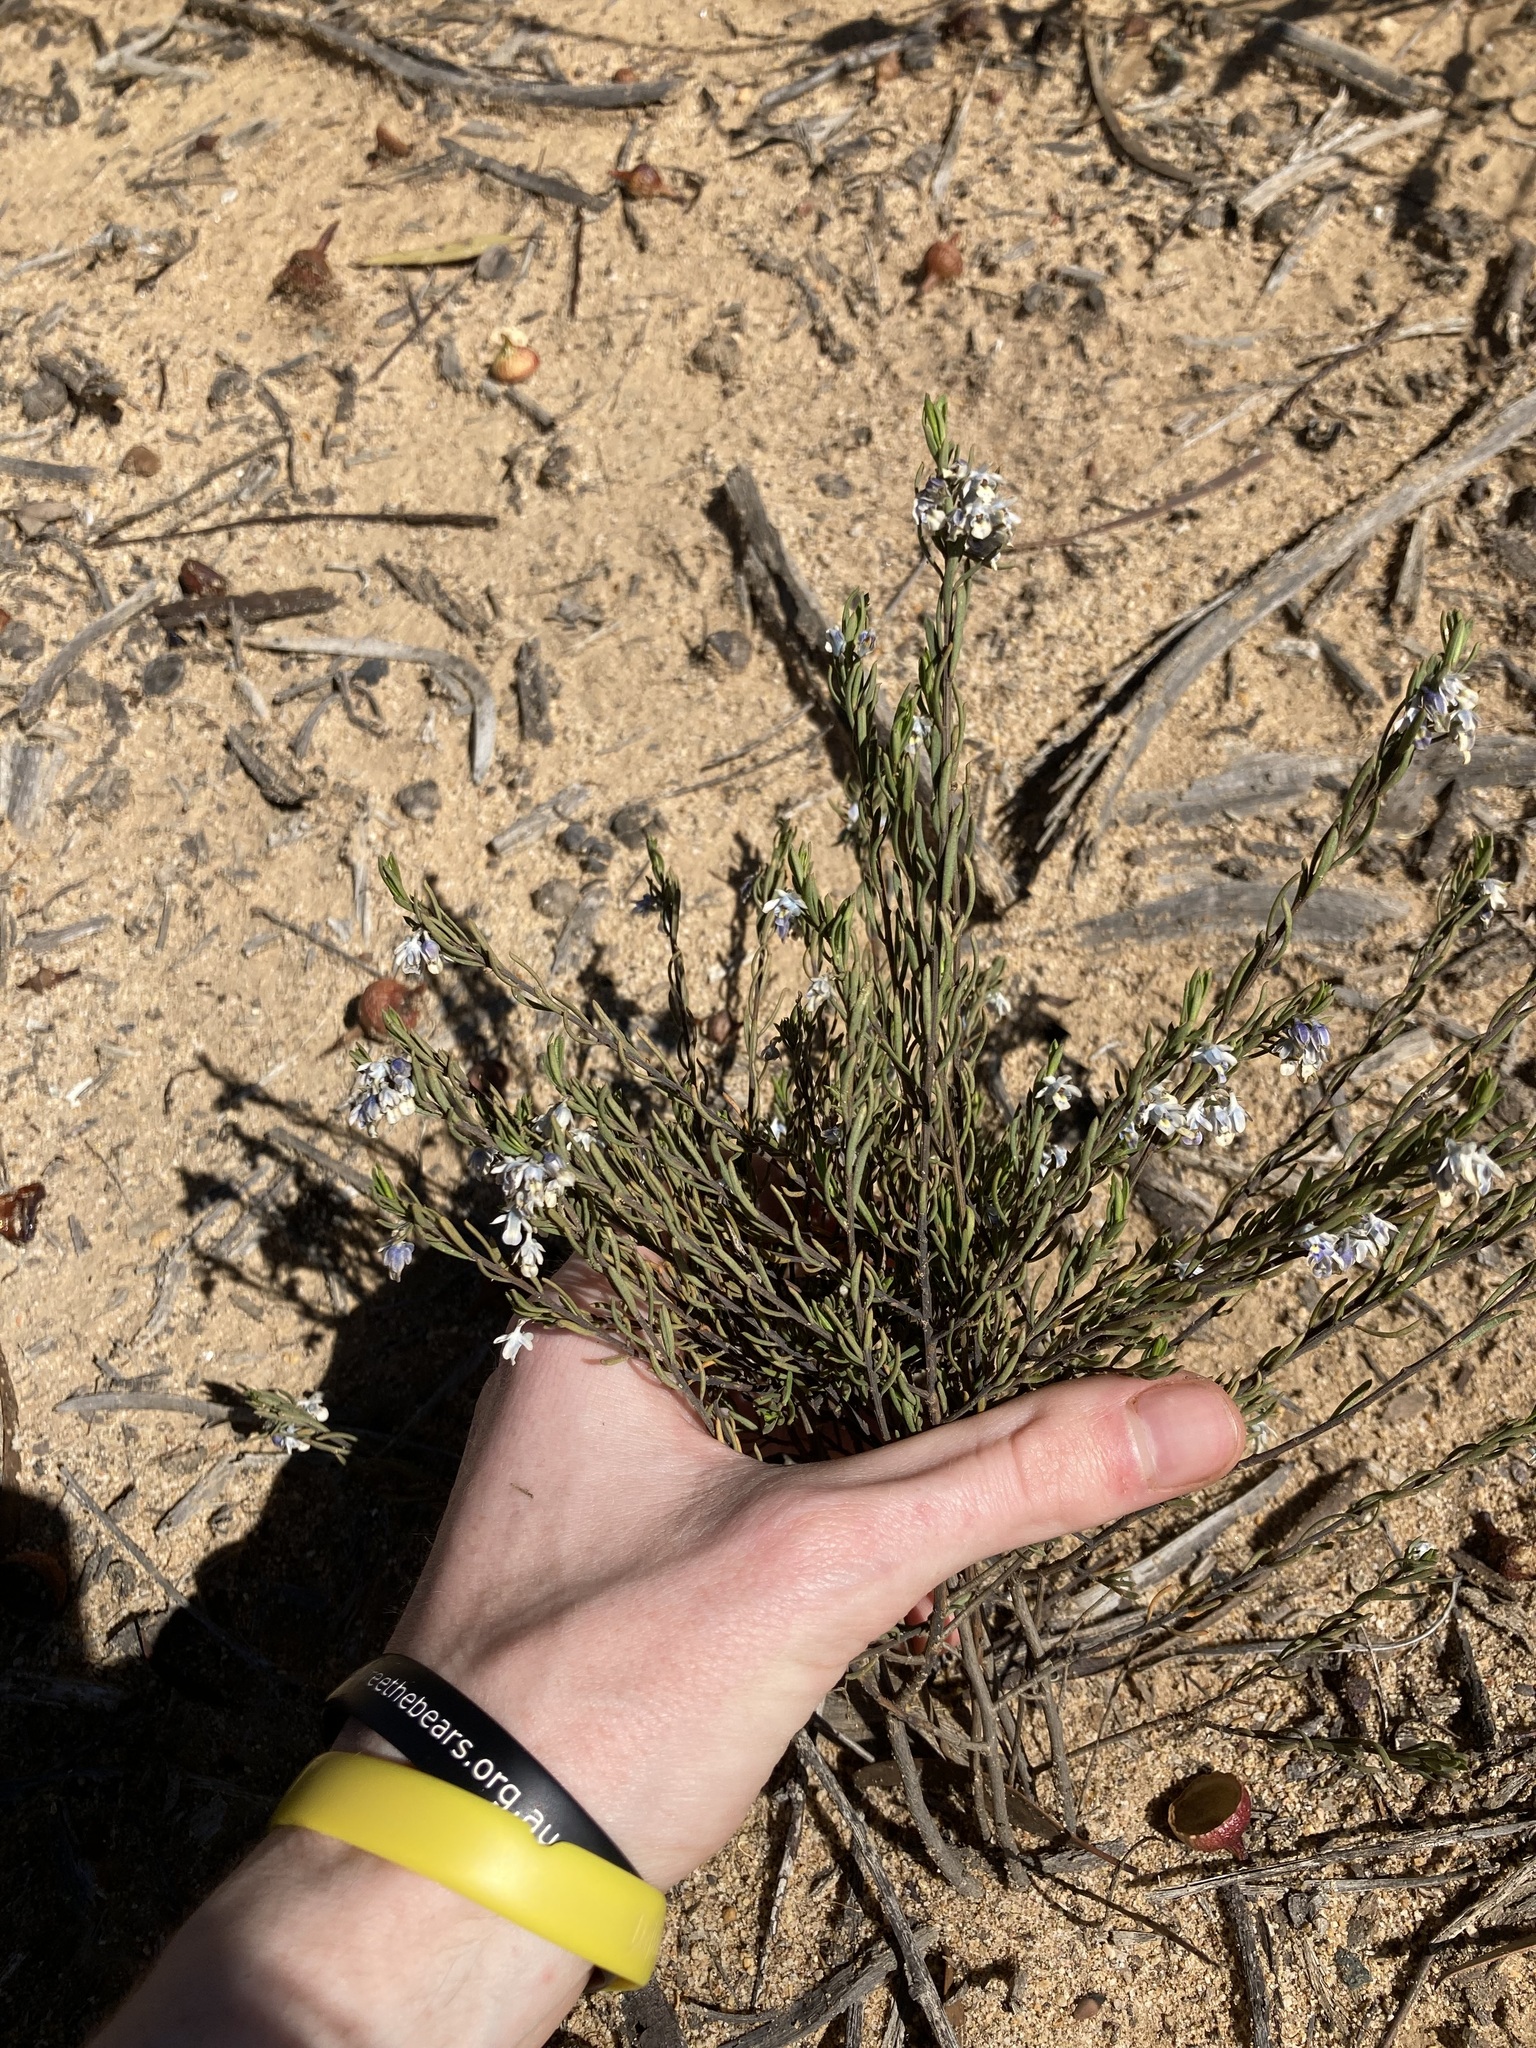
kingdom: Plantae
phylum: Tracheophyta
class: Magnoliopsida
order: Malpighiales
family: Violaceae
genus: Pigea
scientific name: Pigea floribunda
